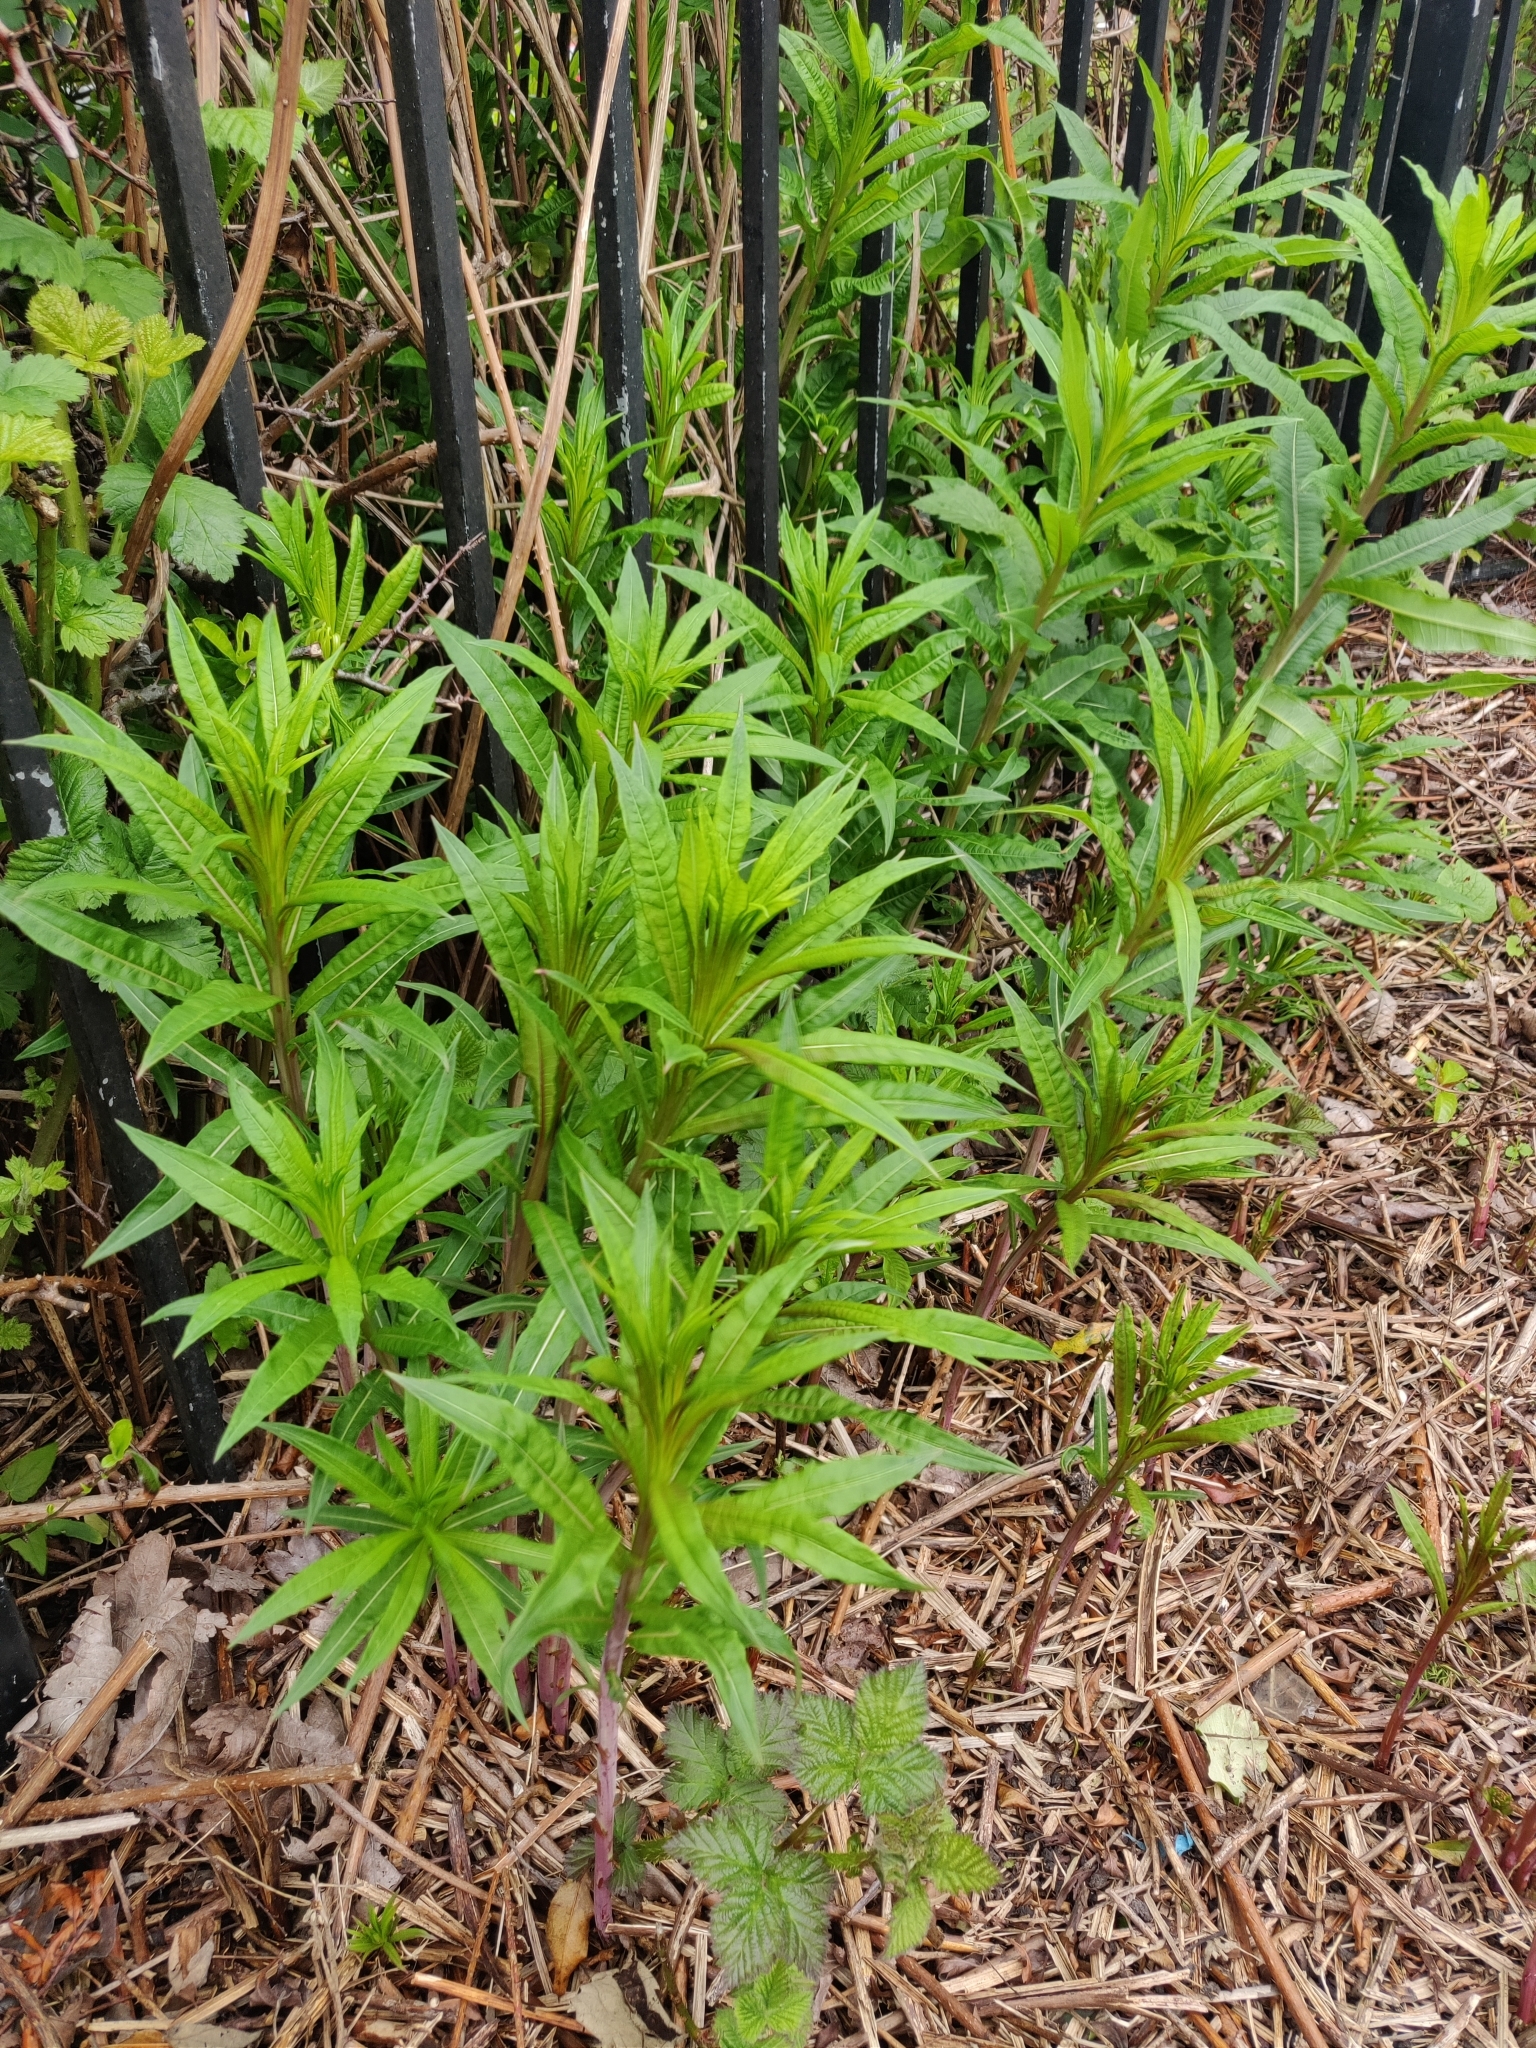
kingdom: Plantae
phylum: Tracheophyta
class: Magnoliopsida
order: Myrtales
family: Onagraceae
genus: Chamaenerion
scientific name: Chamaenerion angustifolium
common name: Fireweed
